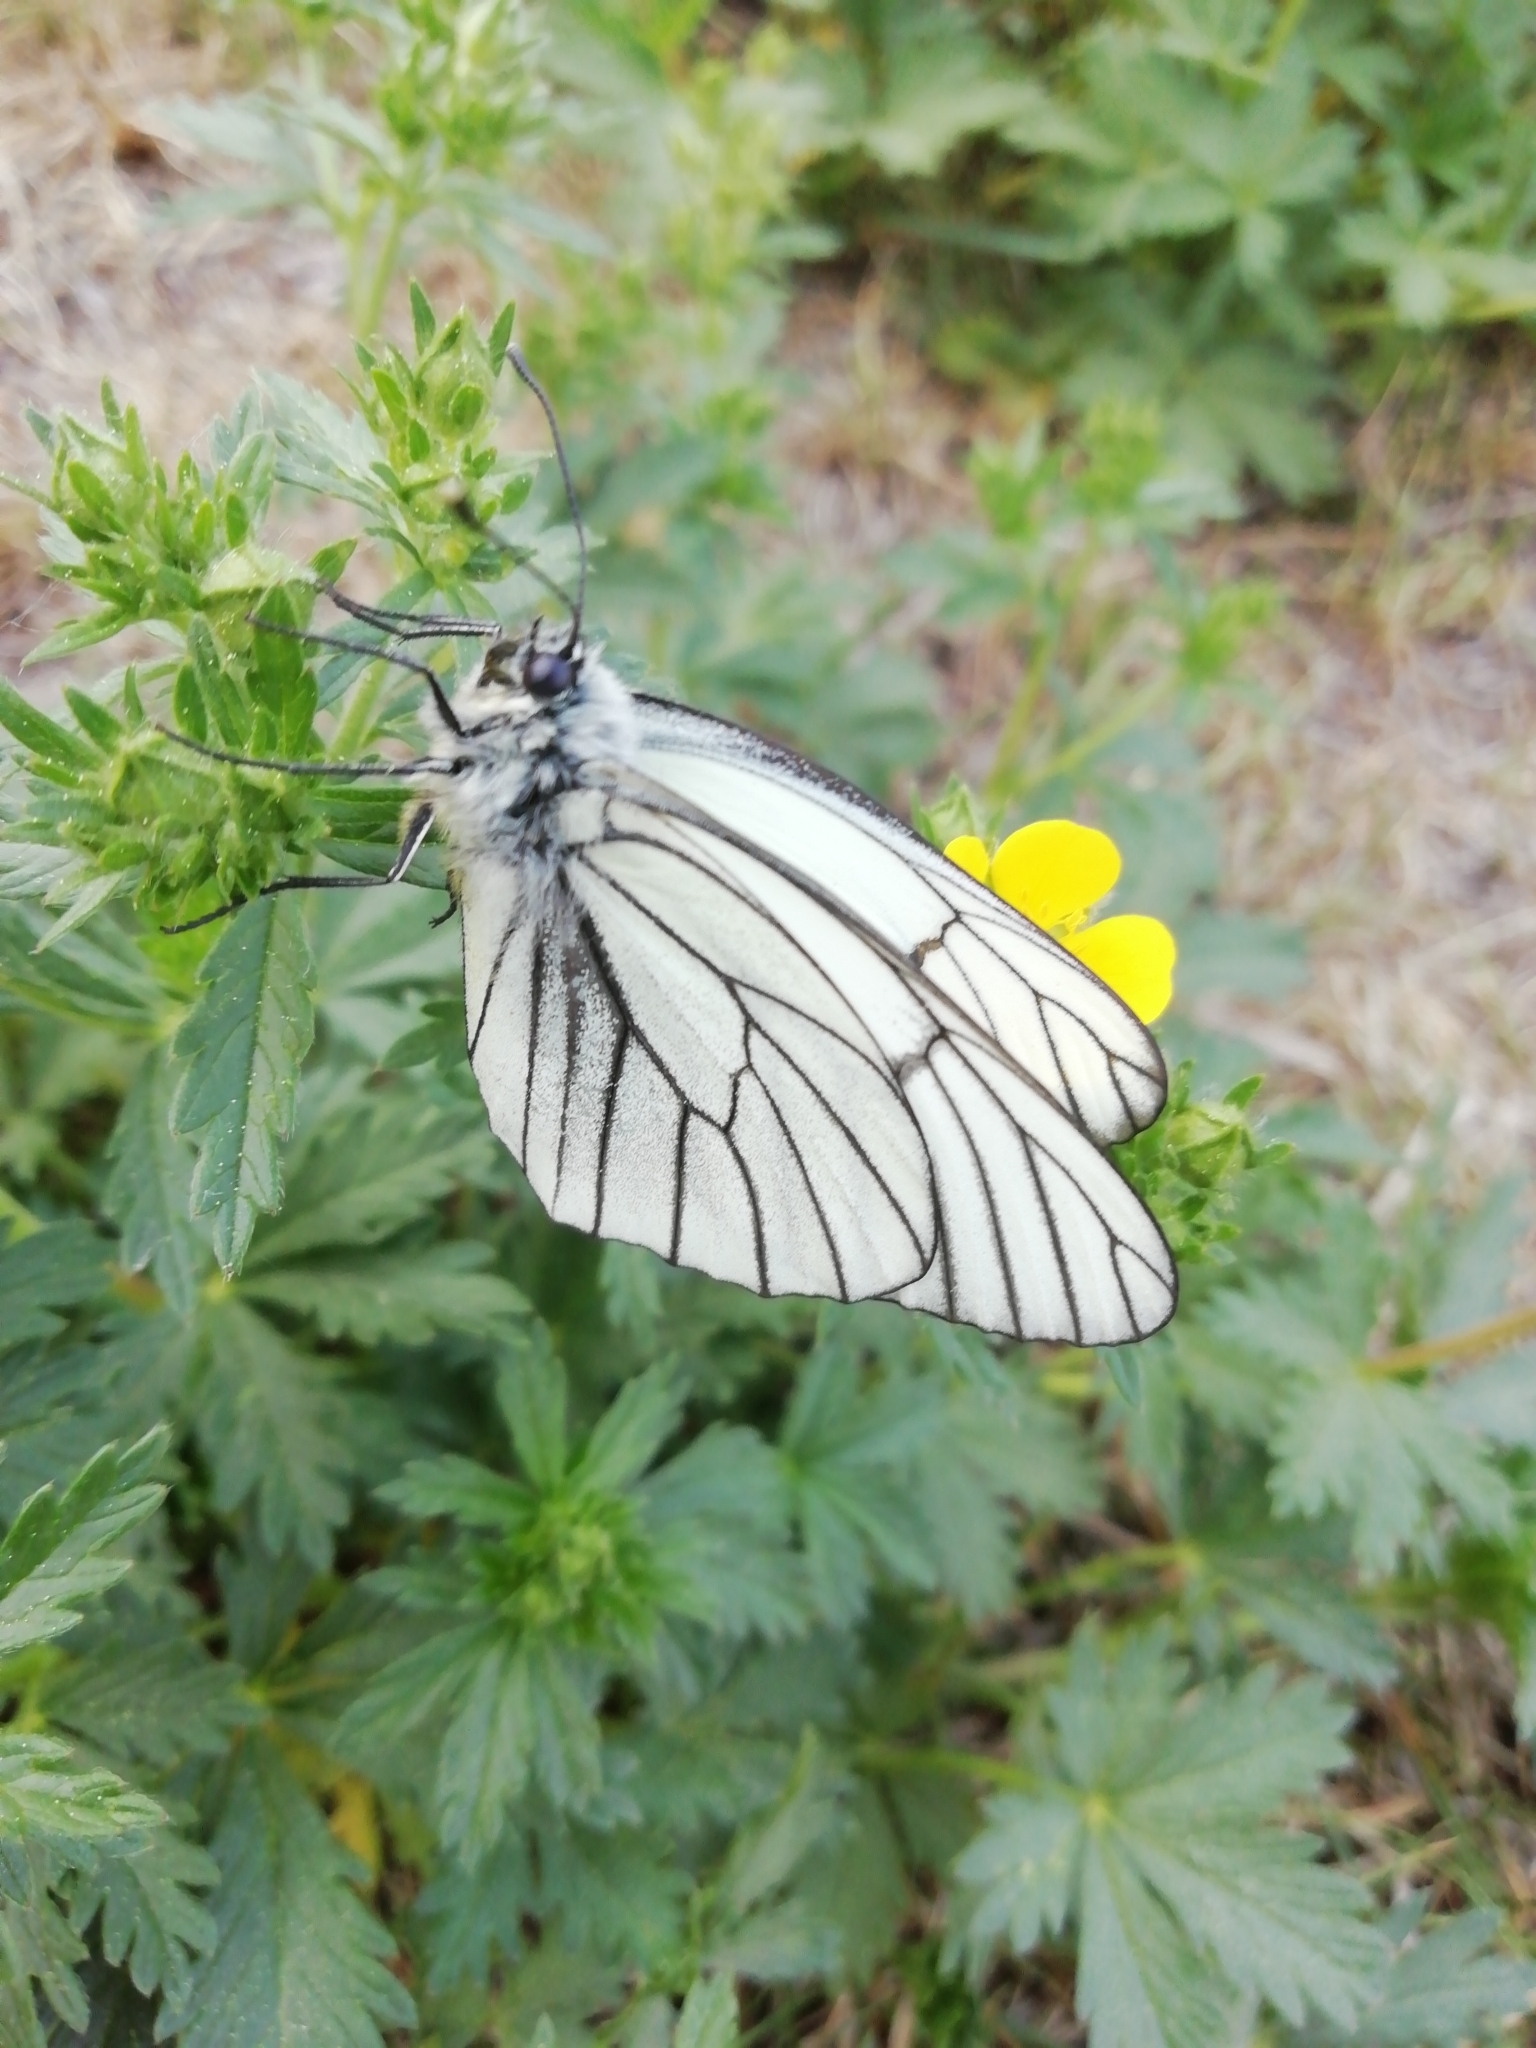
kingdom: Animalia
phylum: Arthropoda
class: Insecta
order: Lepidoptera
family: Pieridae
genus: Aporia
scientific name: Aporia crataegi
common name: Black-veined white
